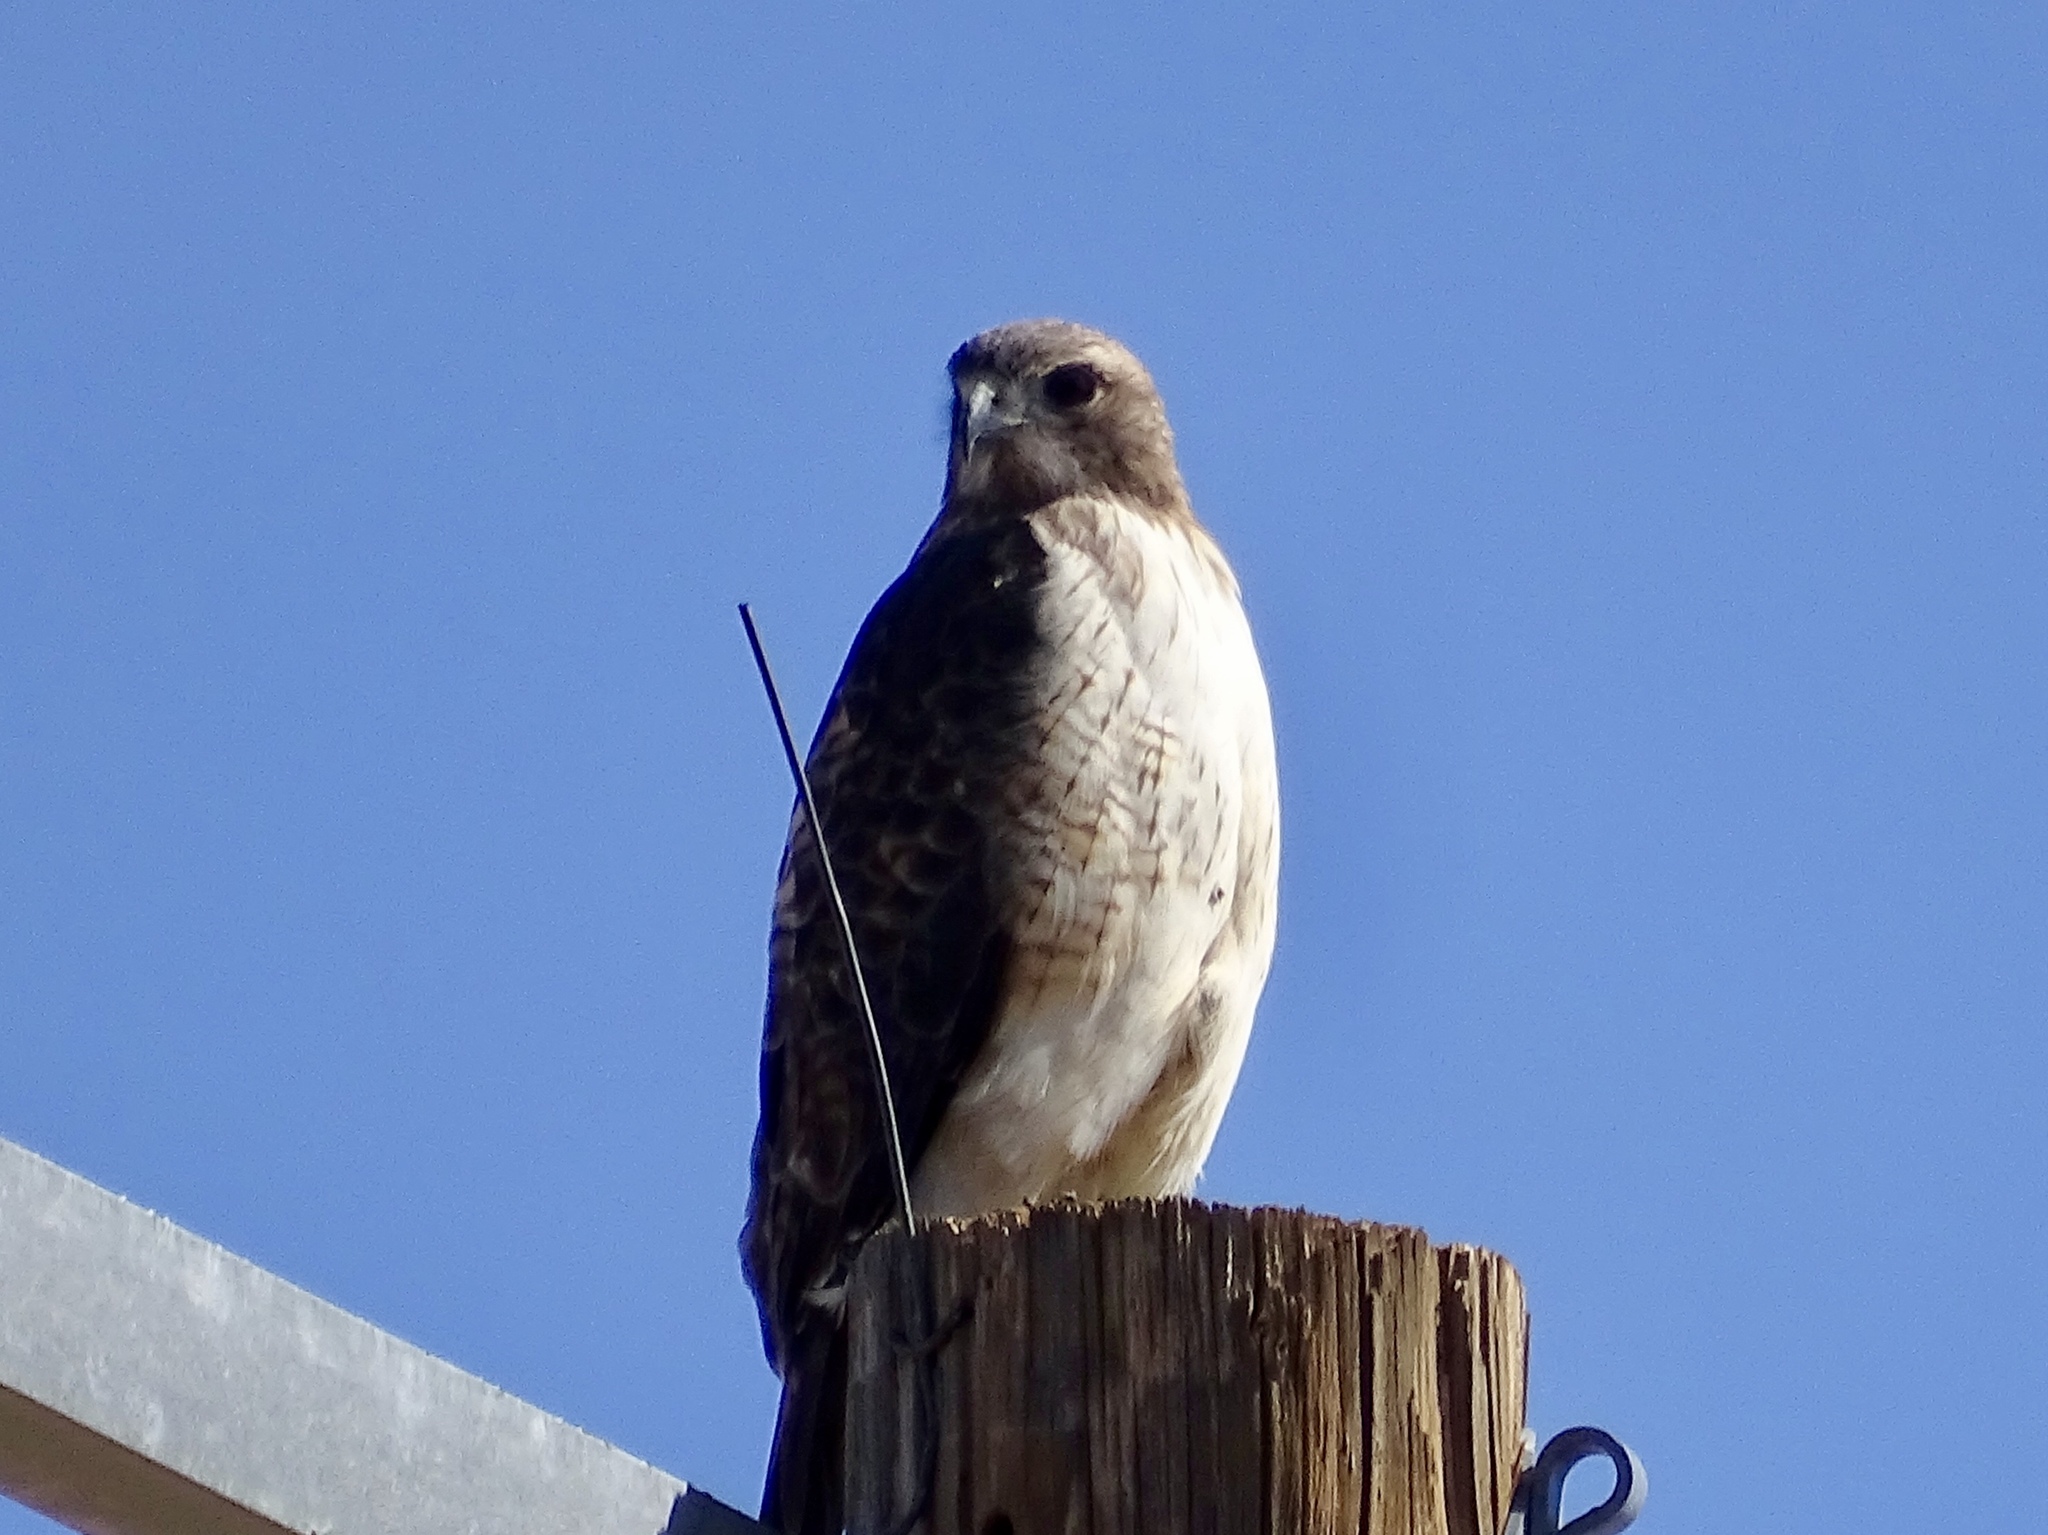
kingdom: Animalia
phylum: Chordata
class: Aves
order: Accipitriformes
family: Accipitridae
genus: Buteo
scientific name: Buteo jamaicensis
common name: Red-tailed hawk
